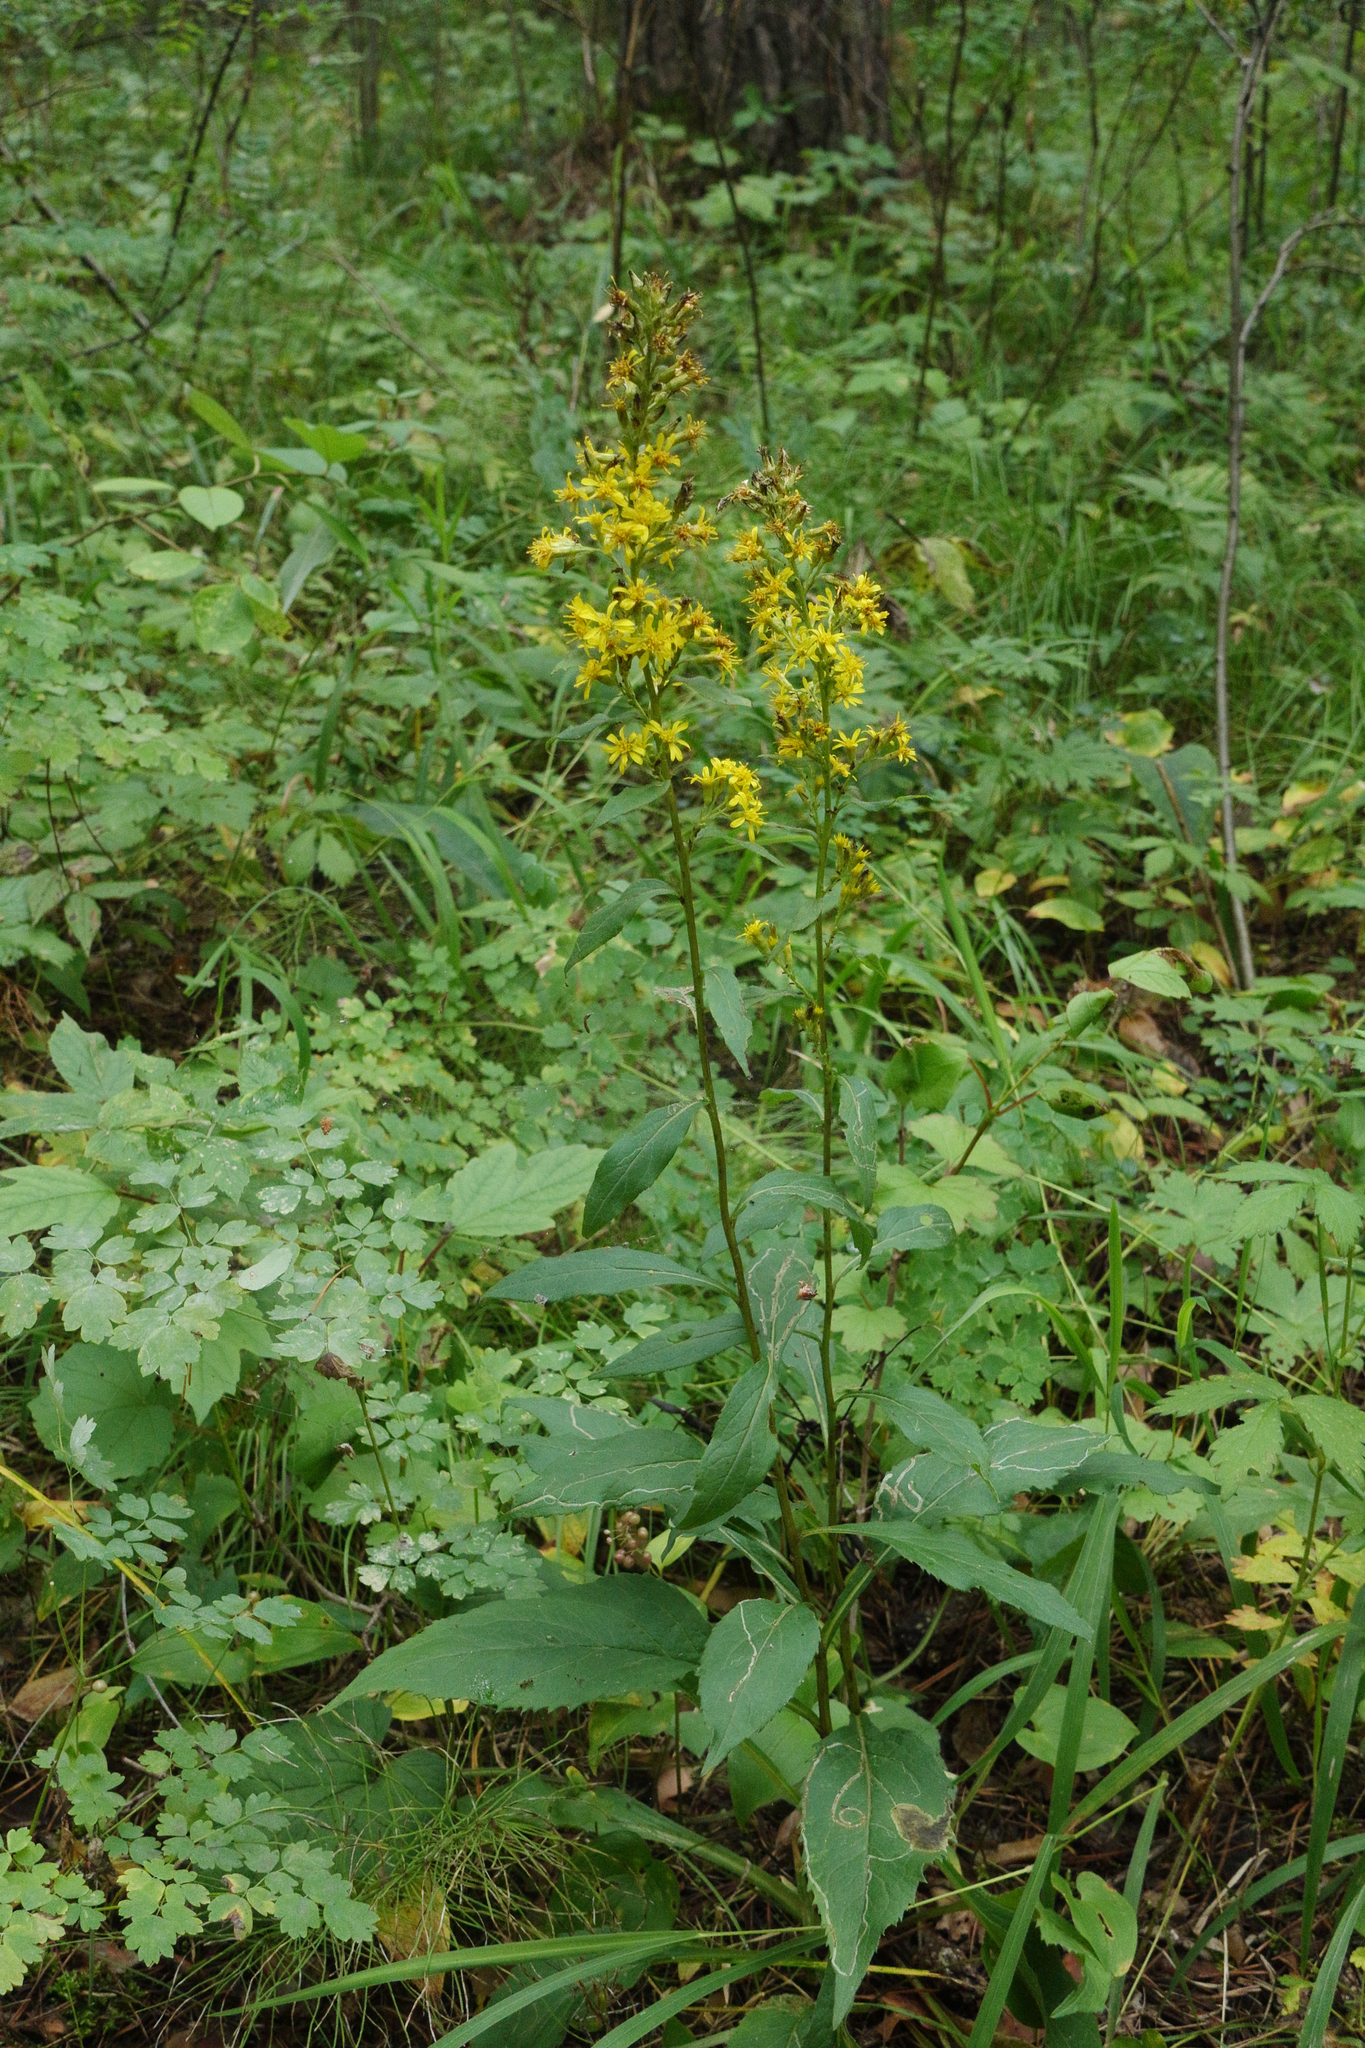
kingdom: Plantae
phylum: Tracheophyta
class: Magnoliopsida
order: Asterales
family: Asteraceae
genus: Solidago
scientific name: Solidago virgaurea
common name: Goldenrod
